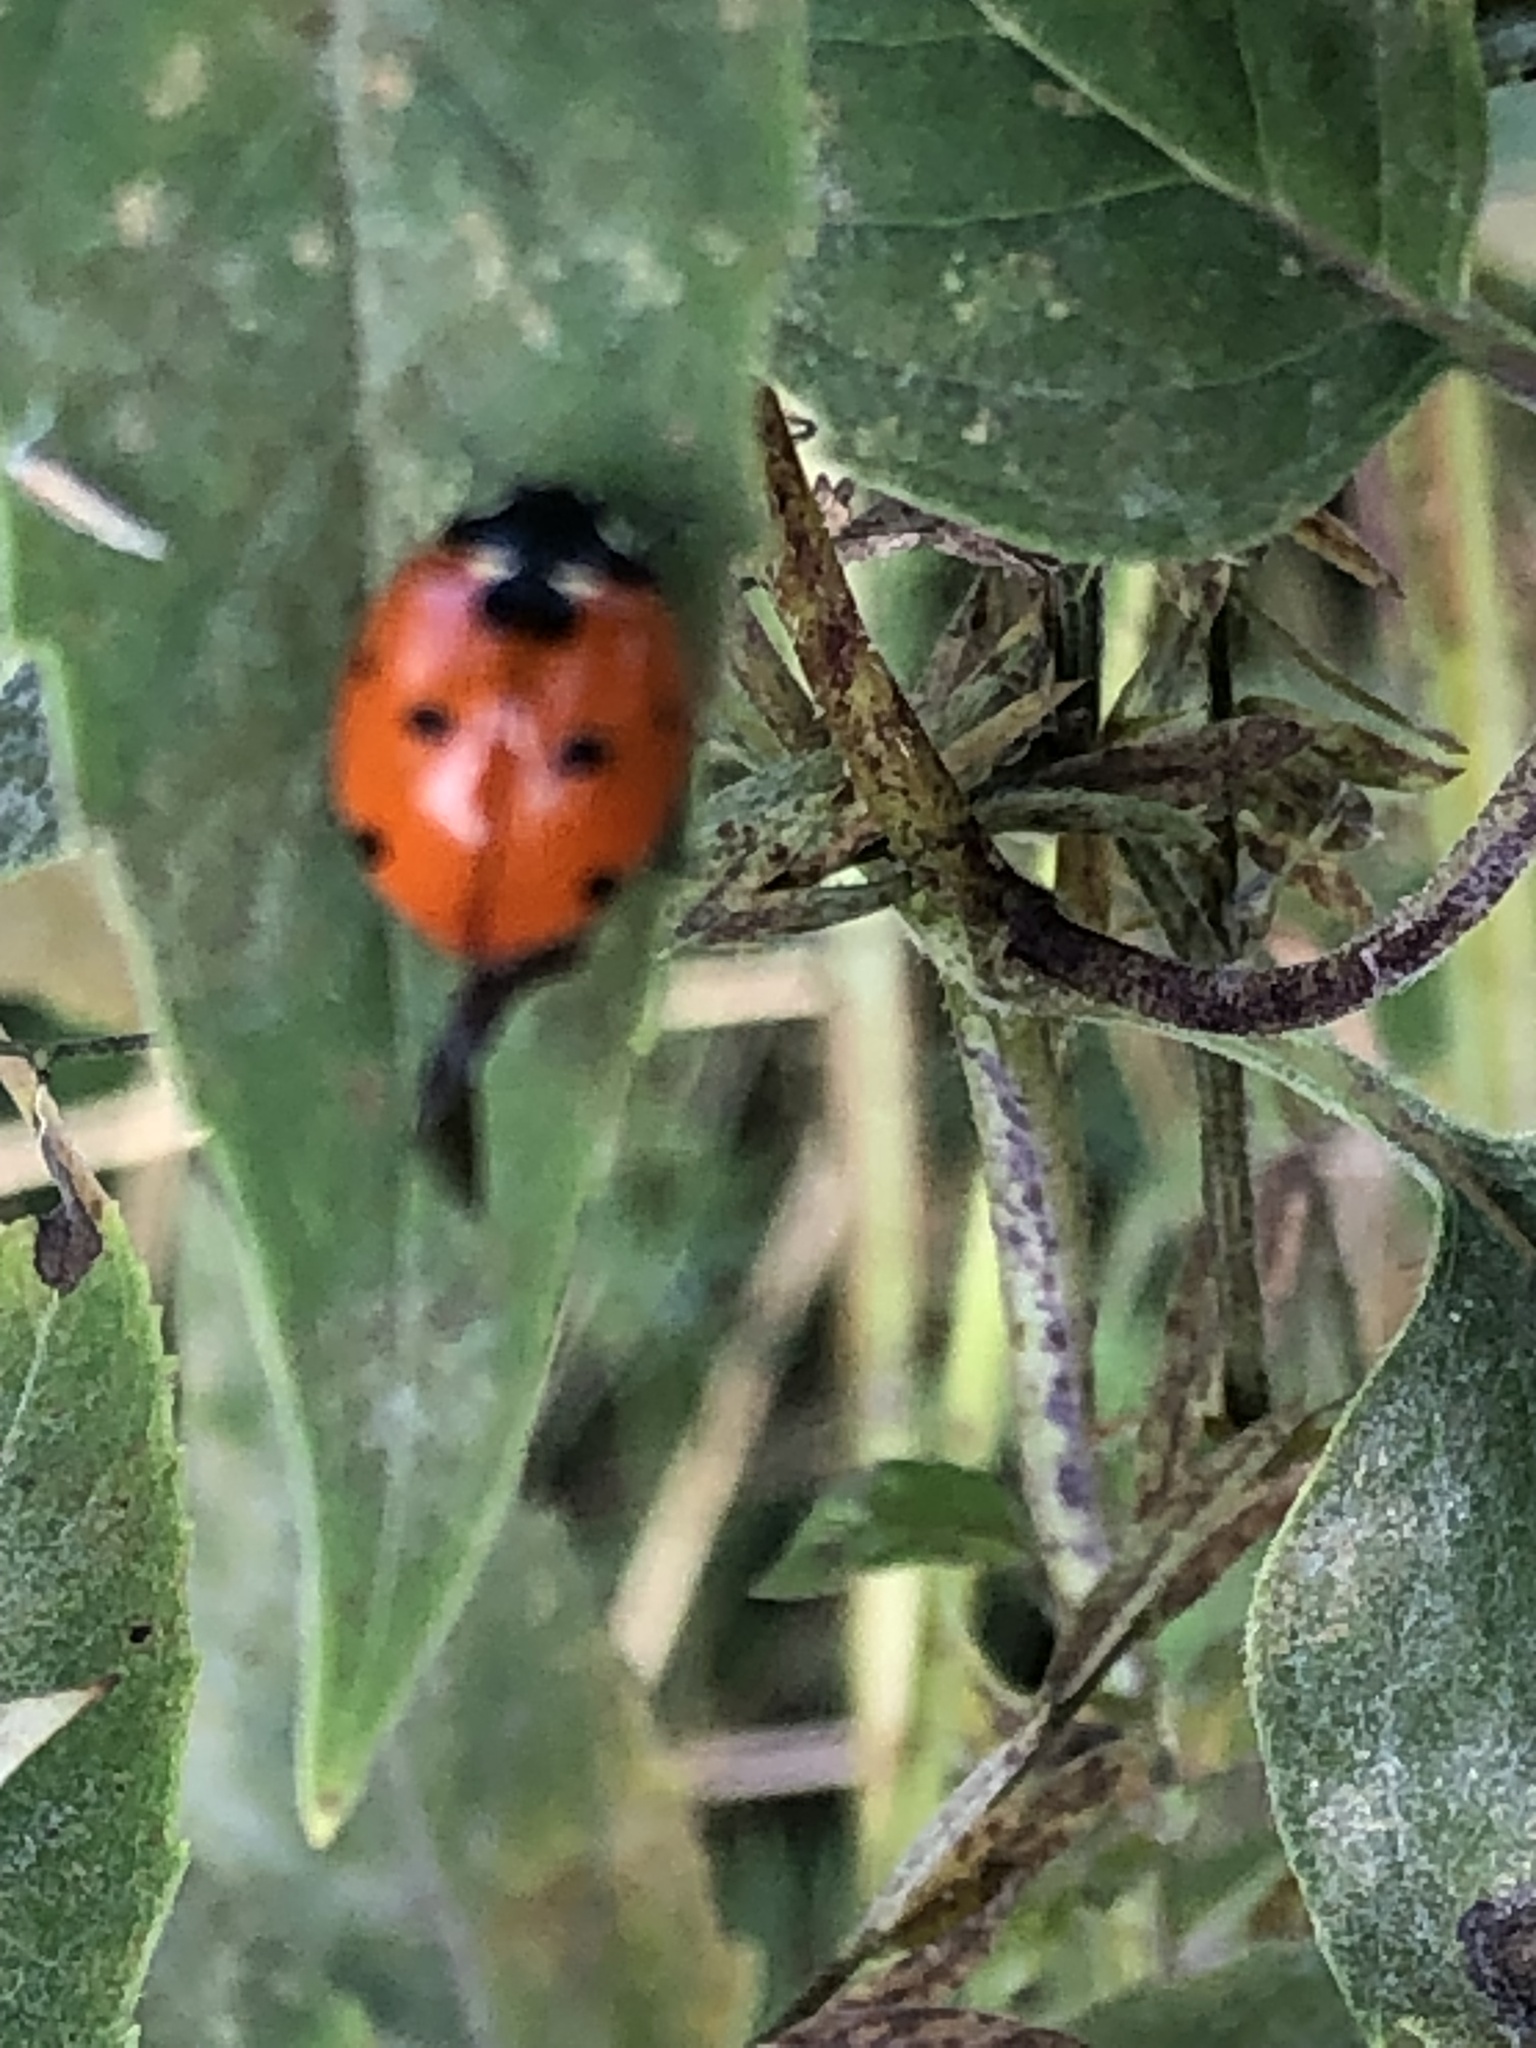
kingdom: Animalia
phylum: Arthropoda
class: Insecta
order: Coleoptera
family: Coccinellidae
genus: Coccinella
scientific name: Coccinella septempunctata
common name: Sevenspotted lady beetle
